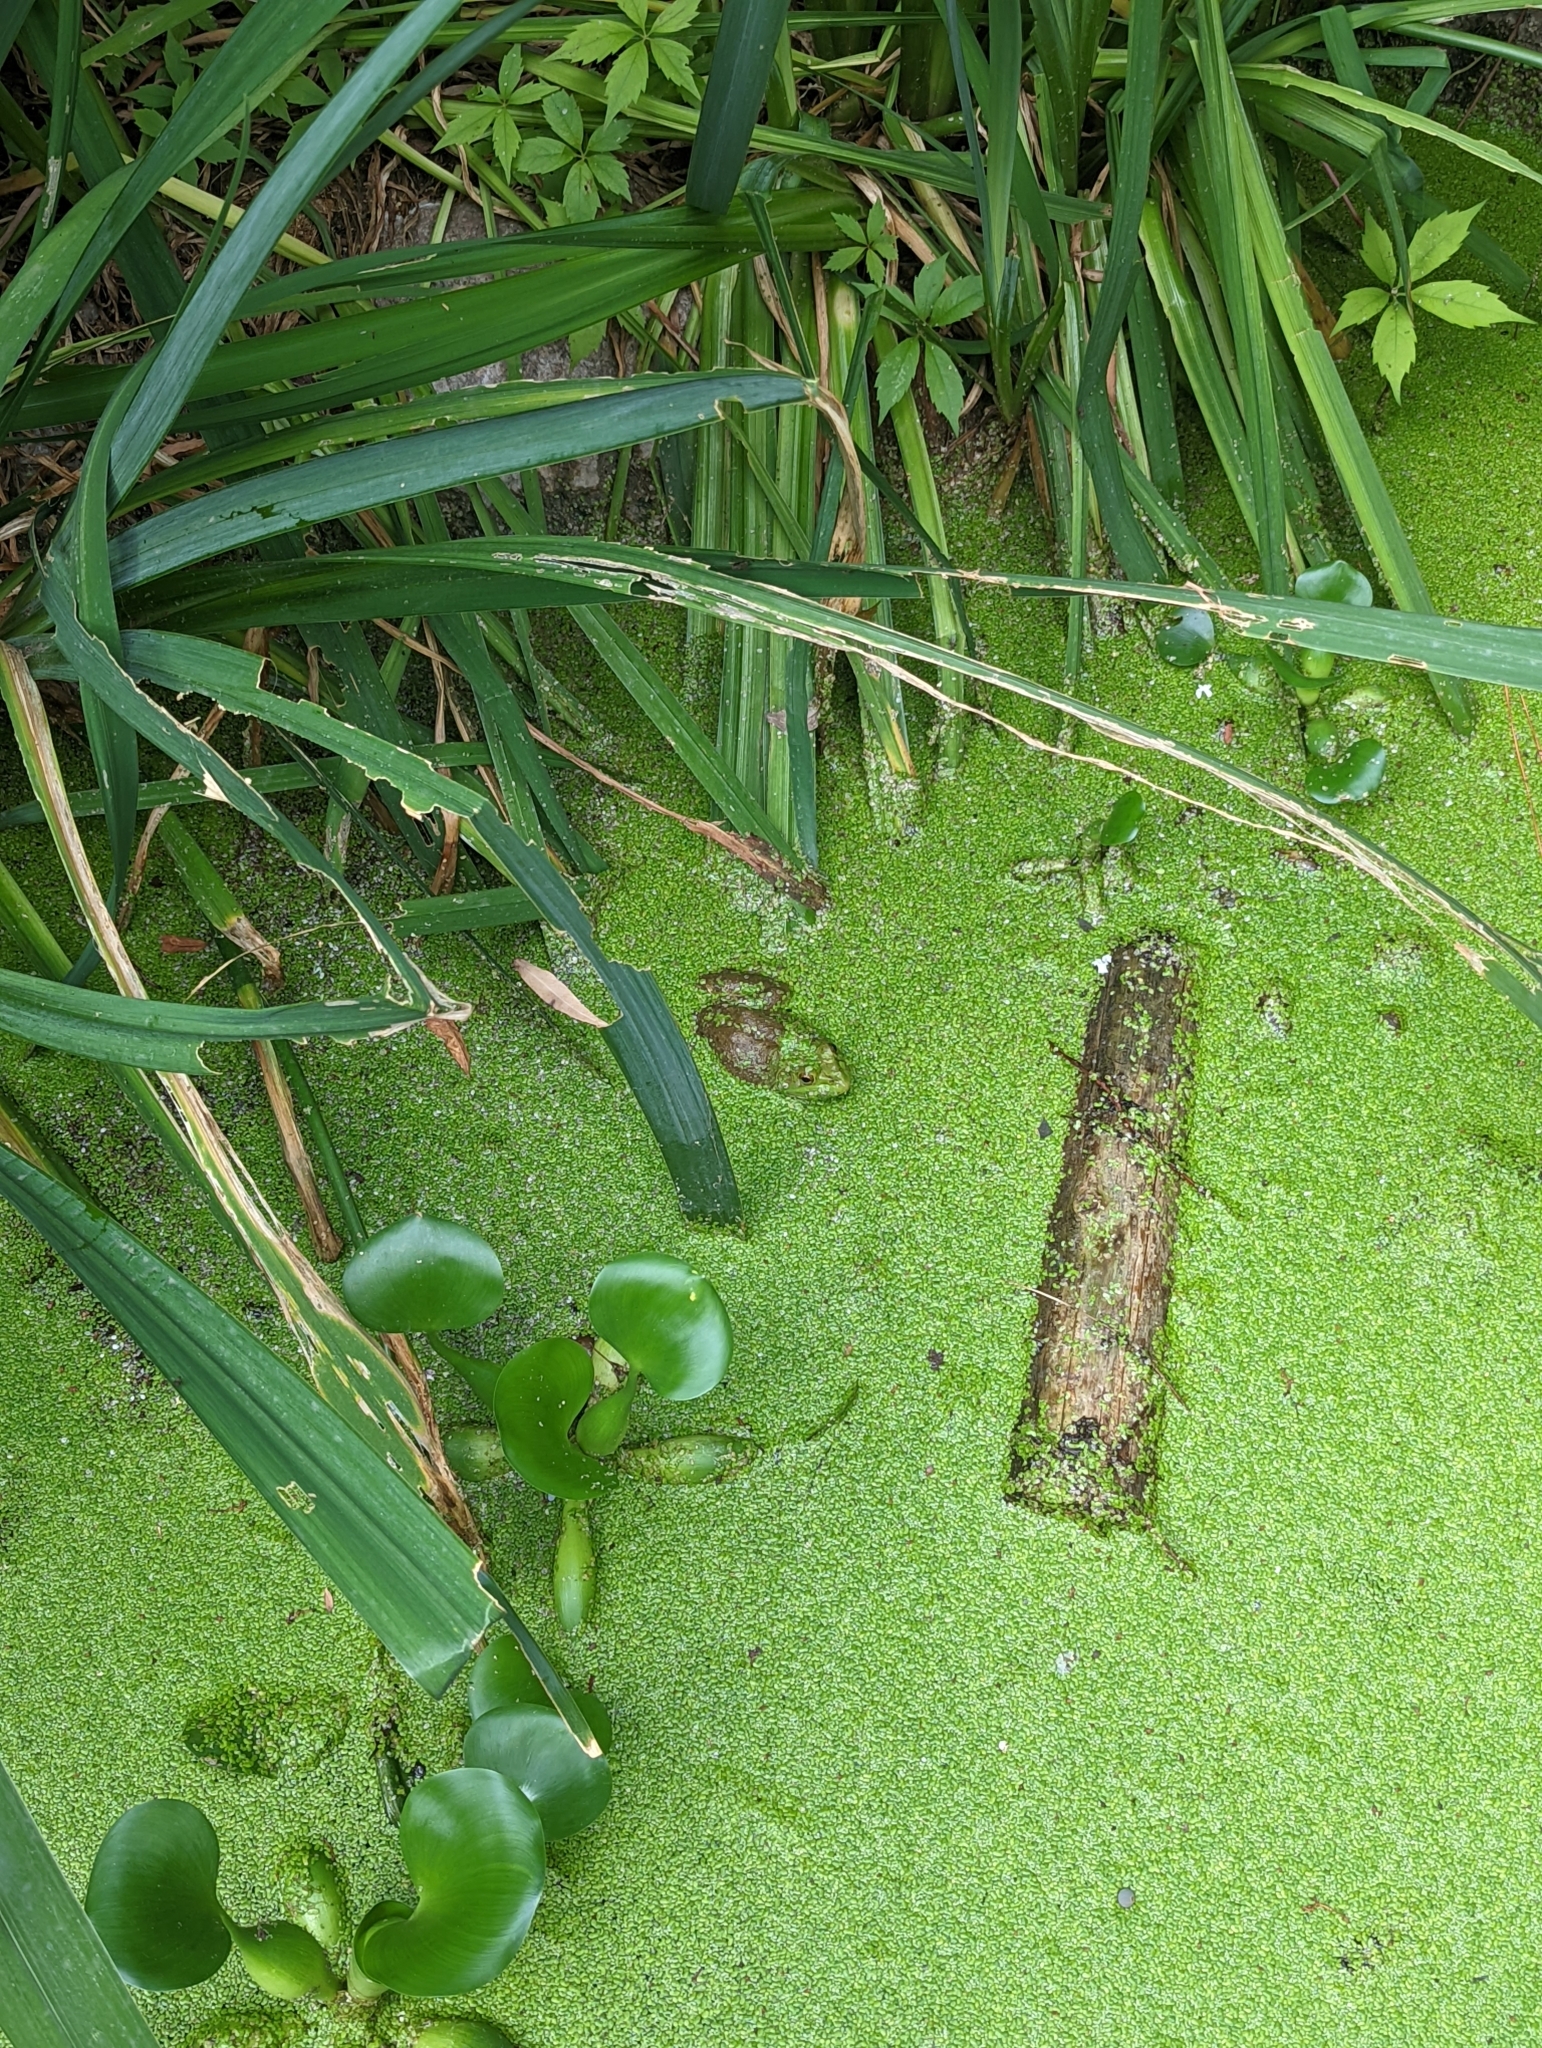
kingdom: Animalia
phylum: Chordata
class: Amphibia
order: Anura
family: Ranidae
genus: Lithobates
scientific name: Lithobates catesbeianus
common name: American bullfrog
